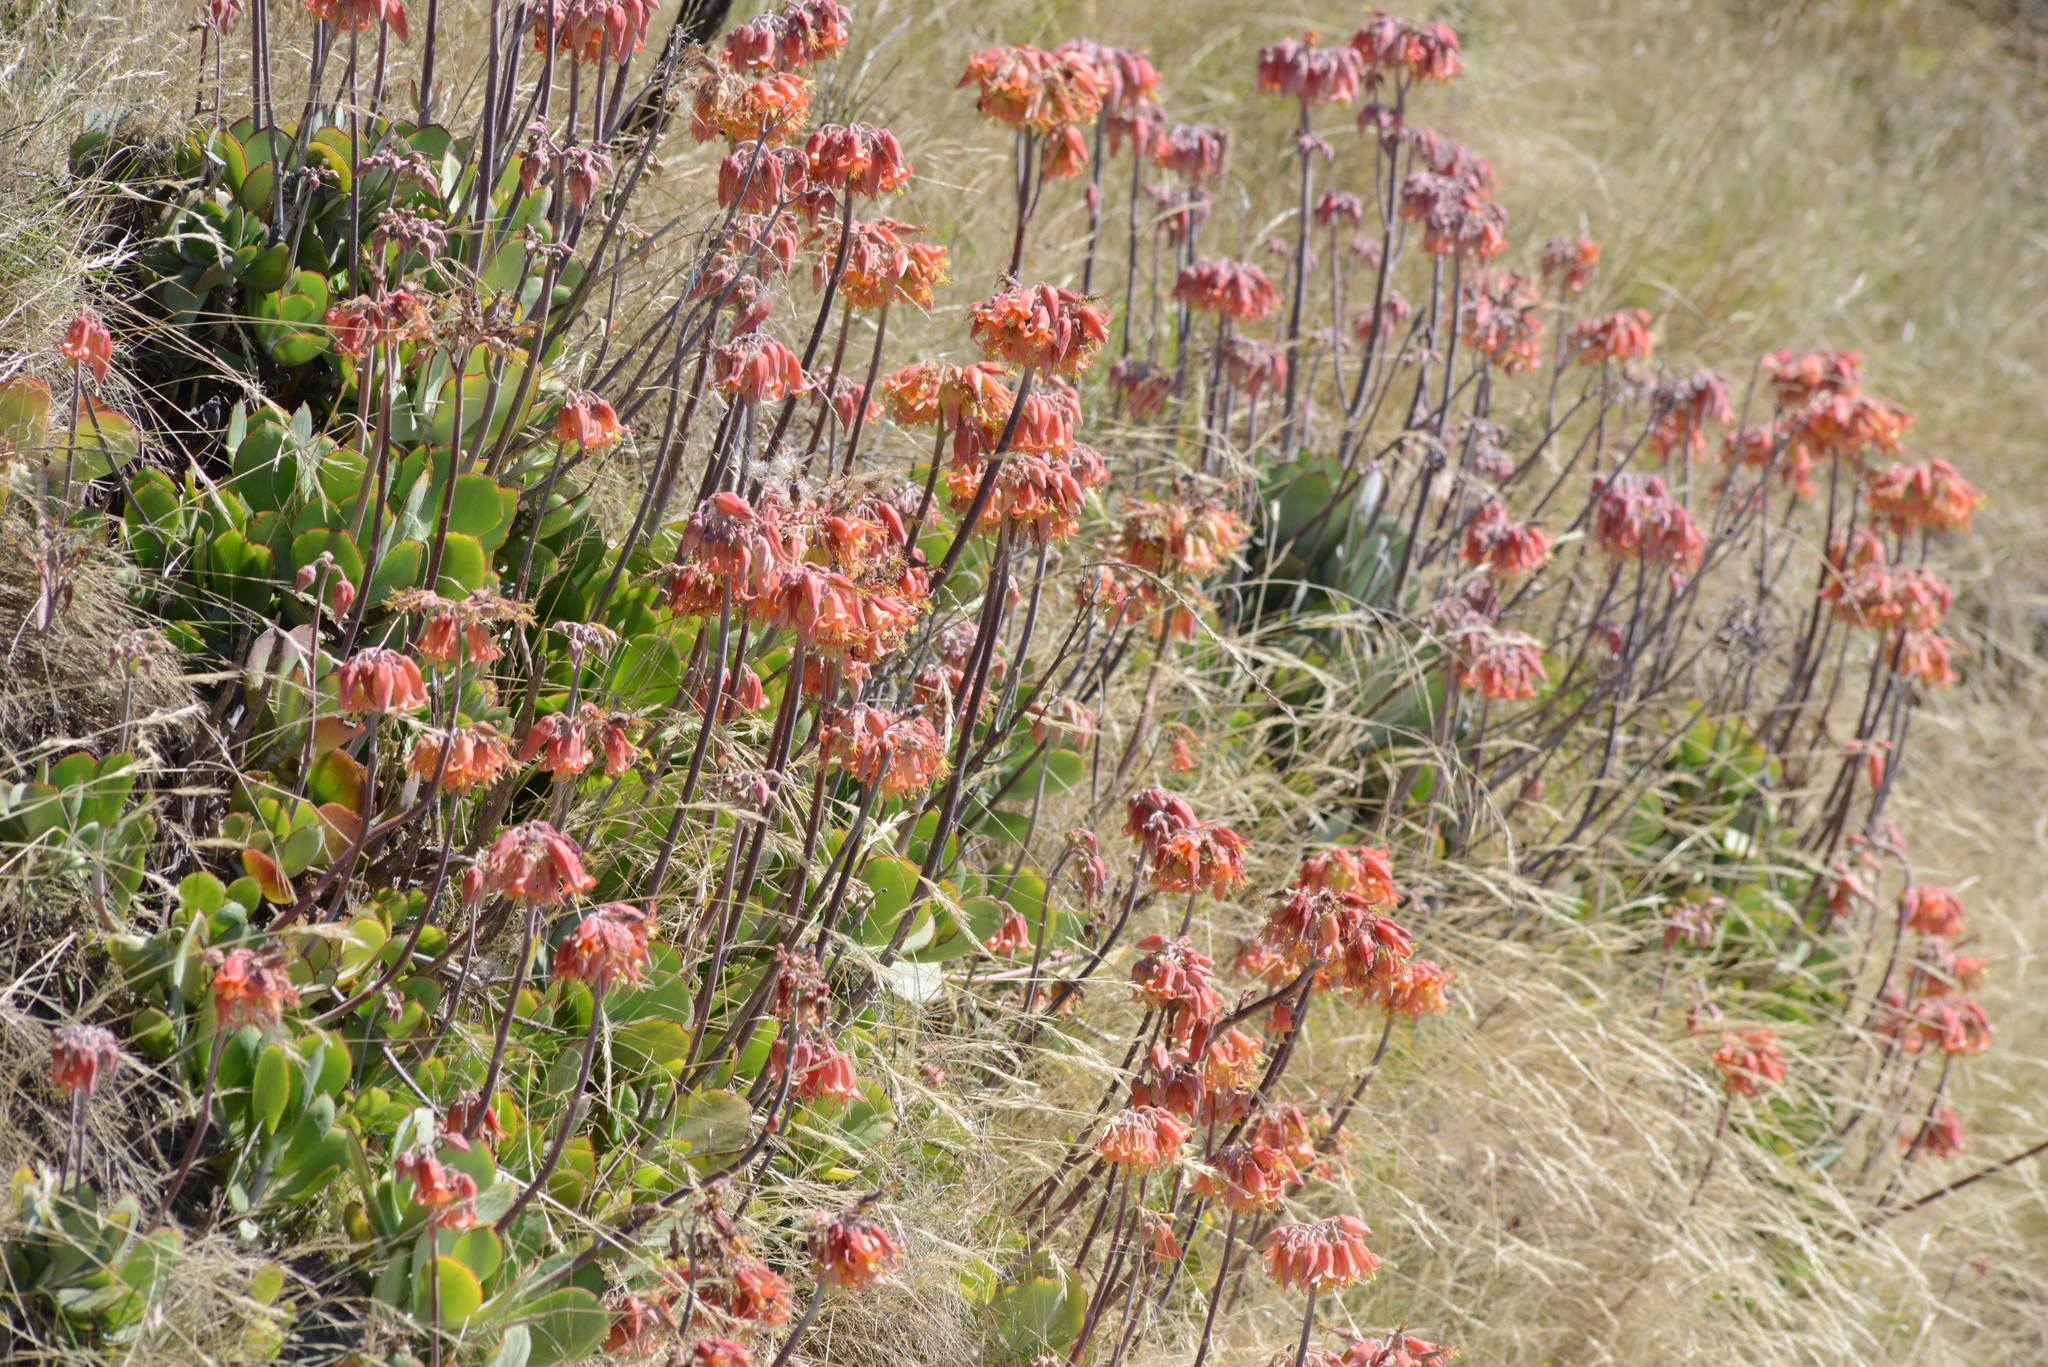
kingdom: Plantae
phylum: Tracheophyta
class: Magnoliopsida
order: Saxifragales
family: Crassulaceae
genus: Cotyledon
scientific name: Cotyledon orbiculata
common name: Pig's ear
